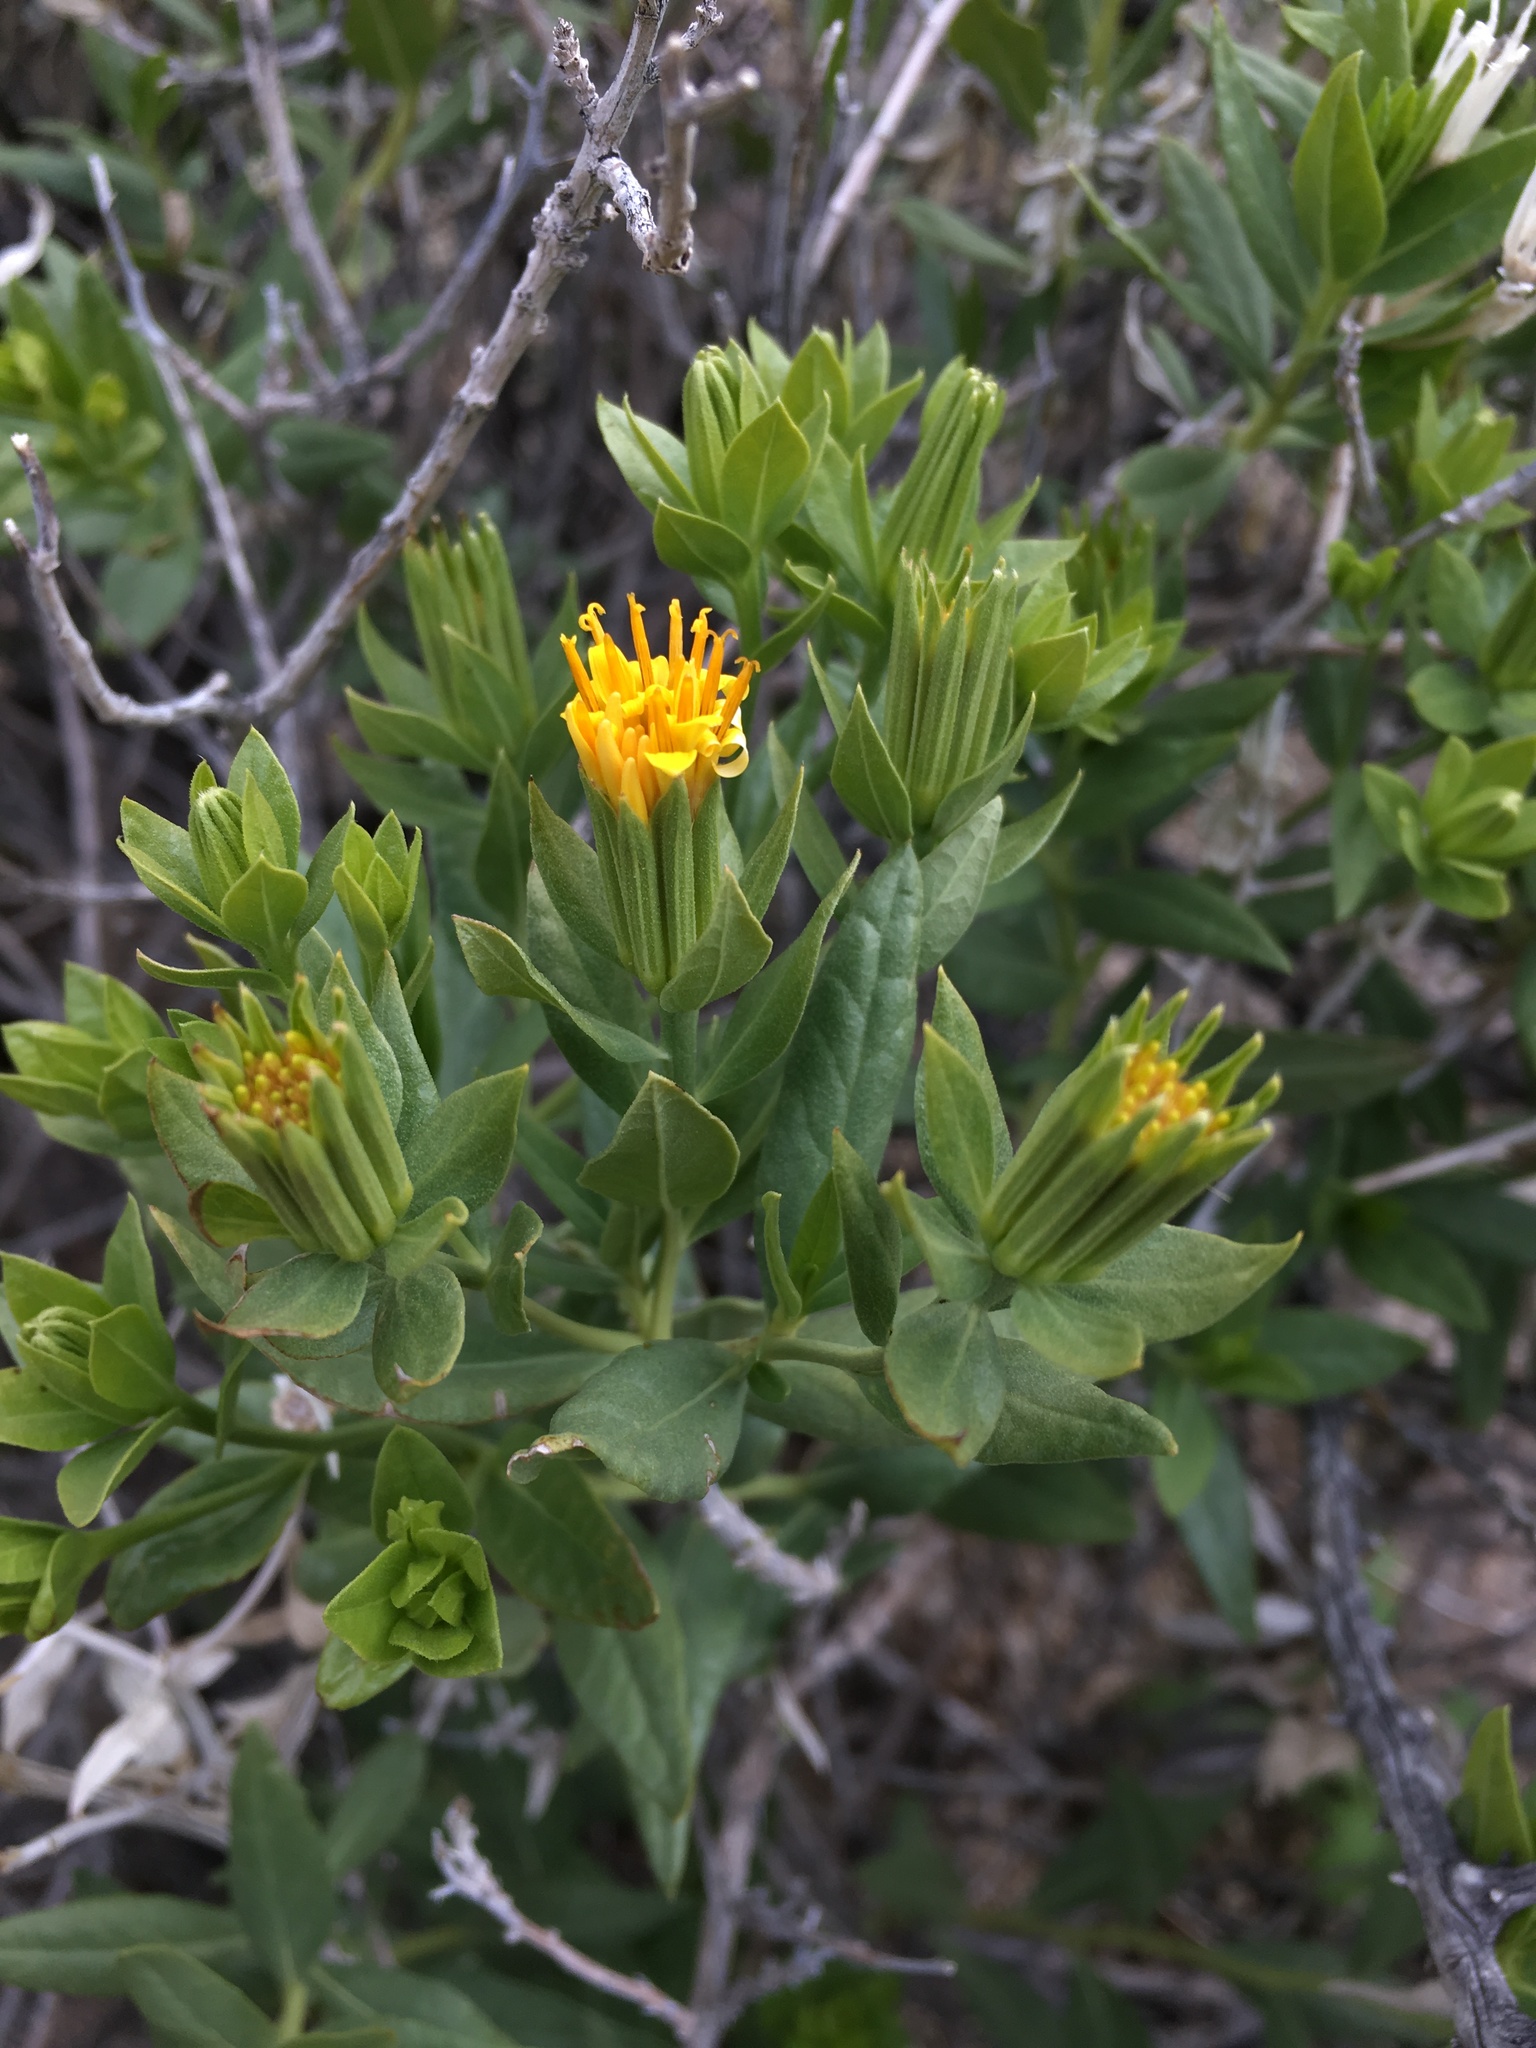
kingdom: Plantae
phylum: Tracheophyta
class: Magnoliopsida
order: Asterales
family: Asteraceae
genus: Trixis
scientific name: Trixis californica
